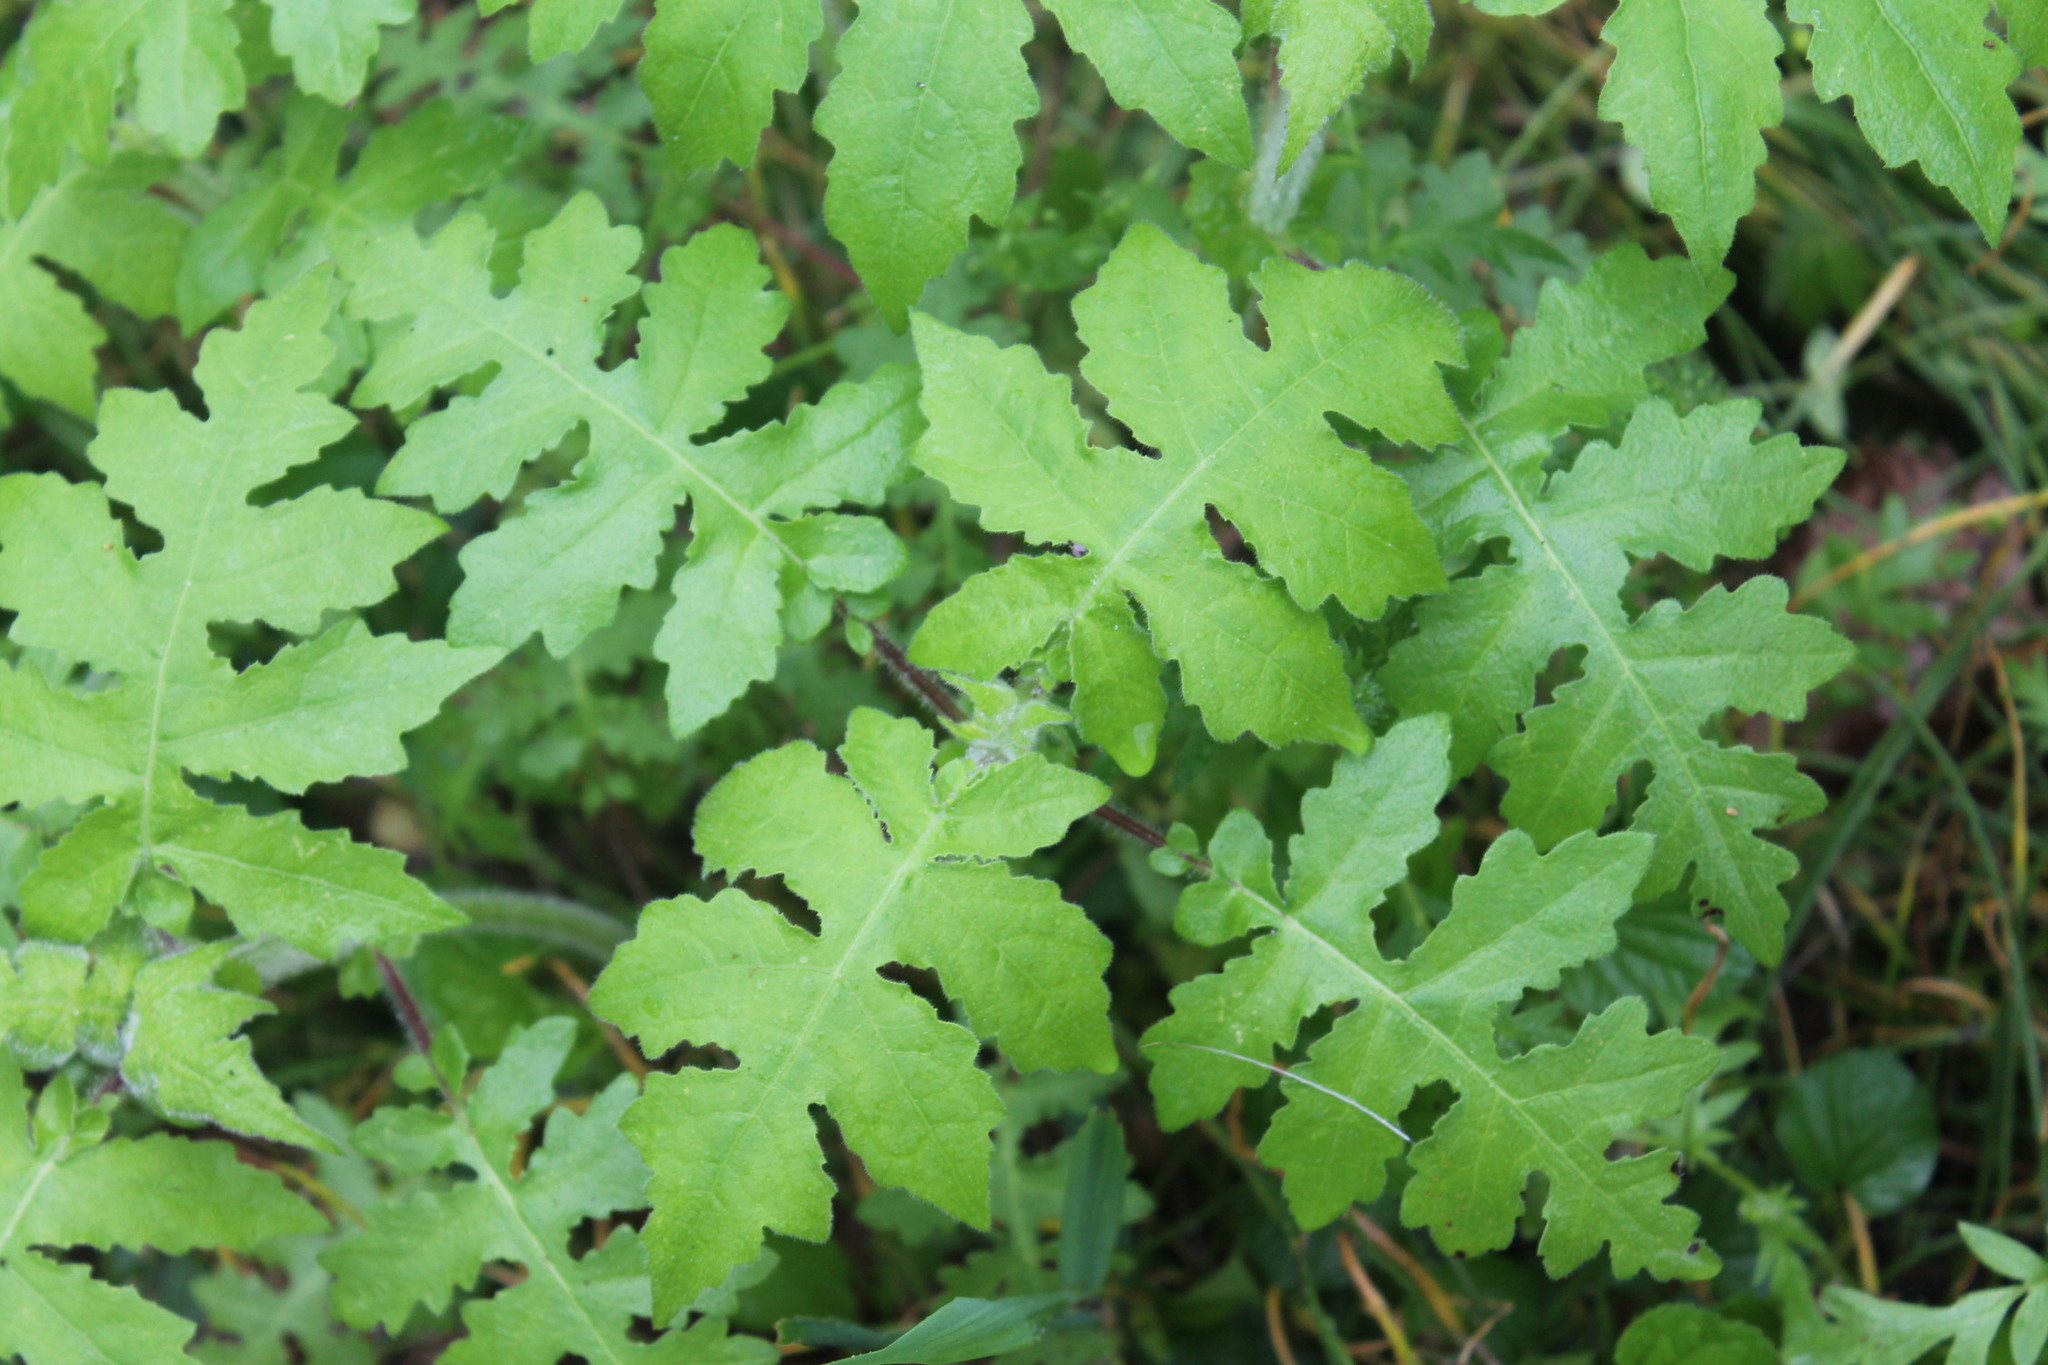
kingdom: Plantae
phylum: Tracheophyta
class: Magnoliopsida
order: Asterales
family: Asteraceae
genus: Polymnia
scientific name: Polymnia canadensis
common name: Pale-flowered leafcup
